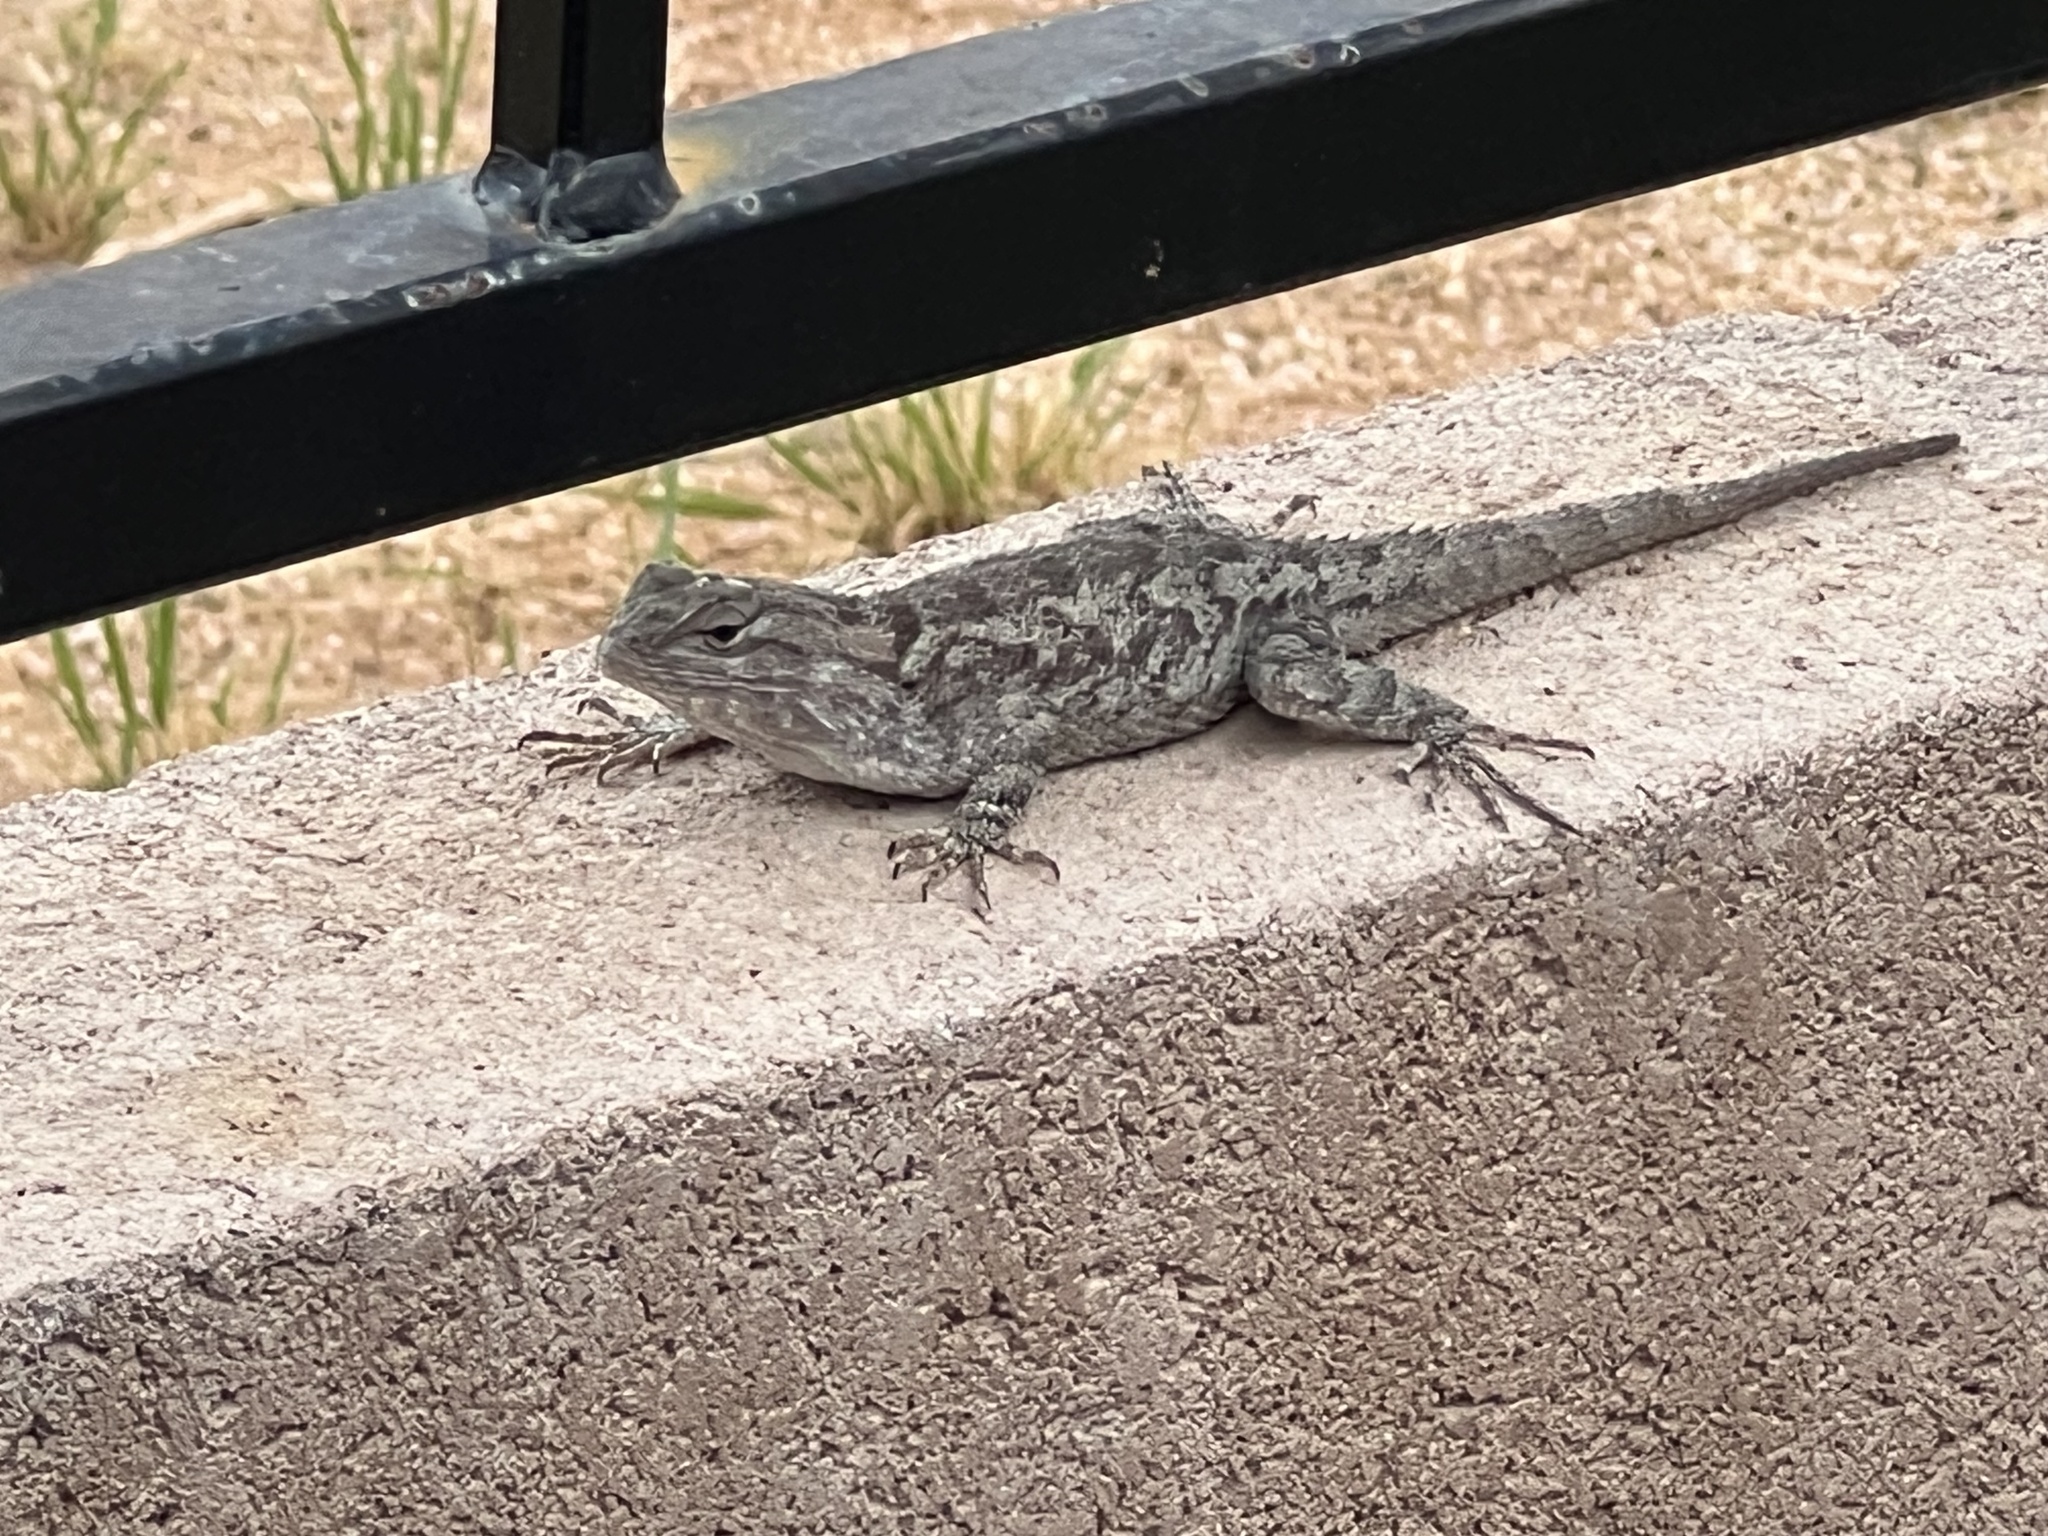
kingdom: Animalia
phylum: Chordata
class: Squamata
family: Phrynosomatidae
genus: Sceloporus
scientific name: Sceloporus clarkii
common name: Clark's spiny lizard
